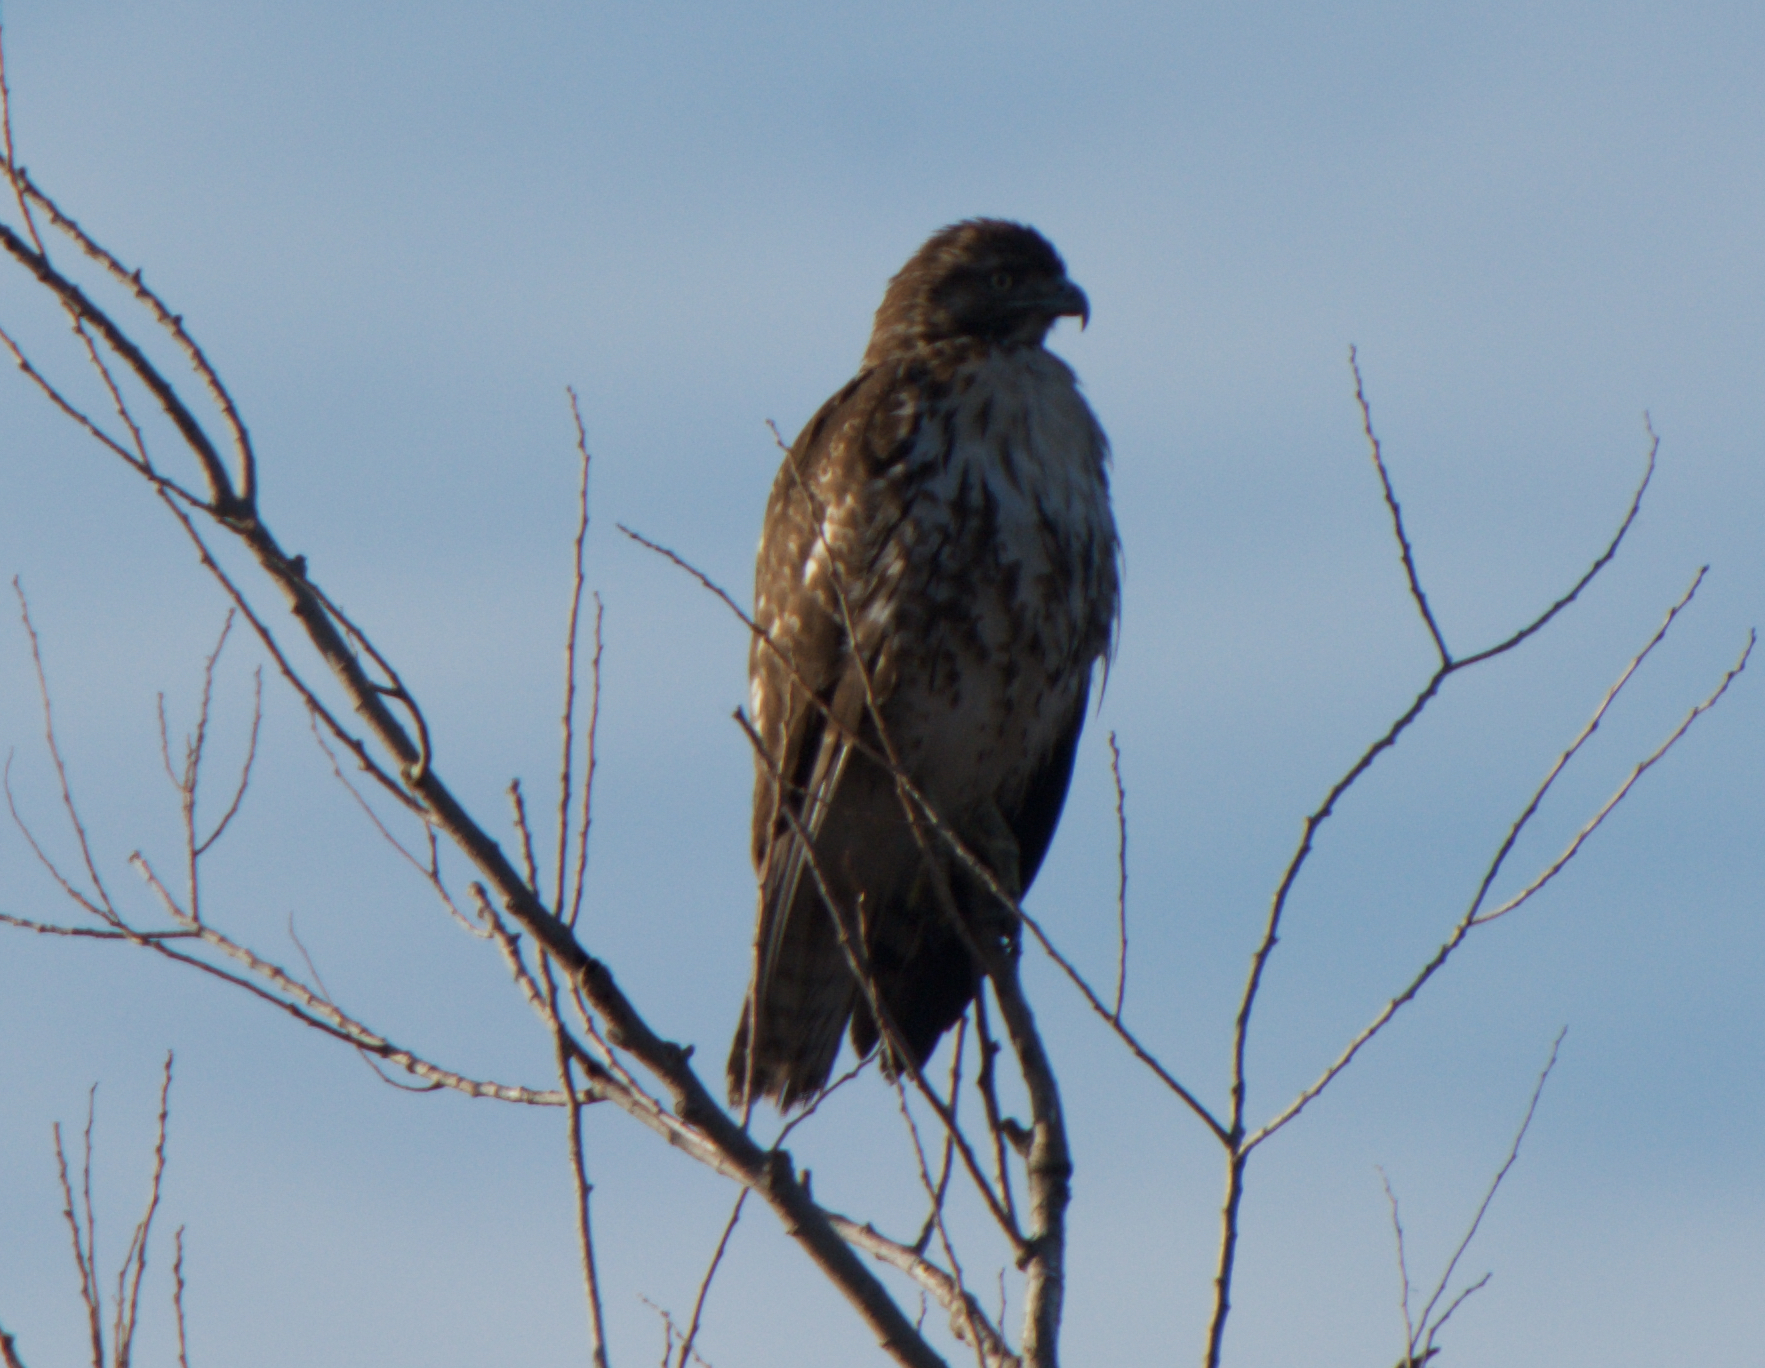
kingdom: Animalia
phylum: Chordata
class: Aves
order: Accipitriformes
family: Accipitridae
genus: Buteo
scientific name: Buteo jamaicensis
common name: Red-tailed hawk
